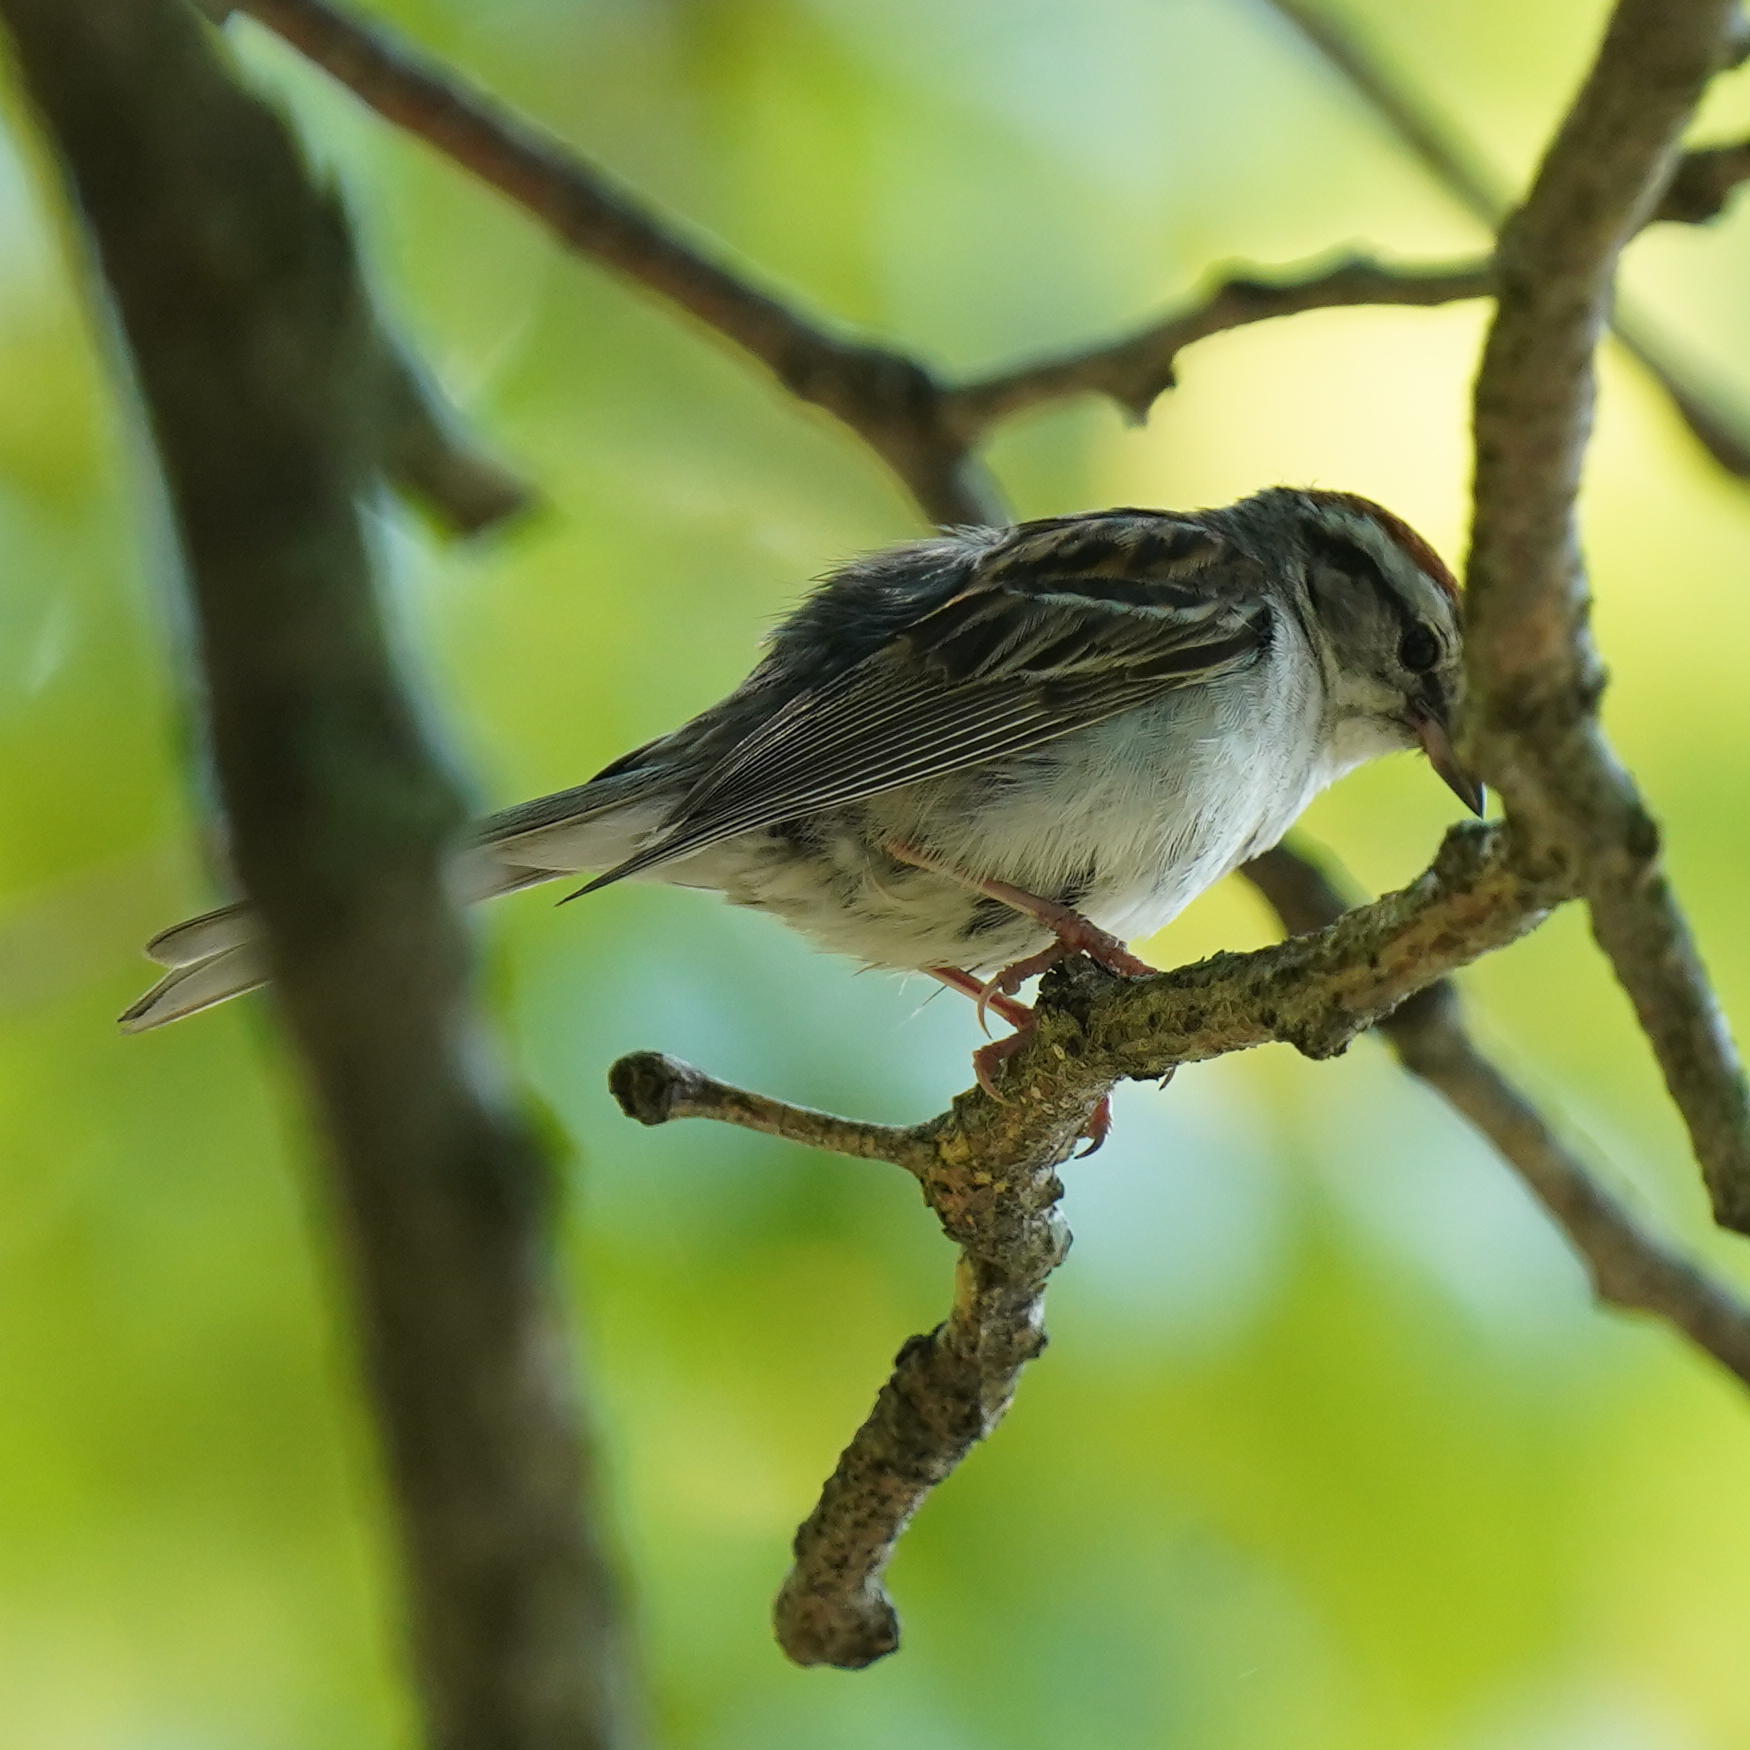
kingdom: Animalia
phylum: Chordata
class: Aves
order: Passeriformes
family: Passerellidae
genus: Spizella
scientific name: Spizella passerina
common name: Chipping sparrow
